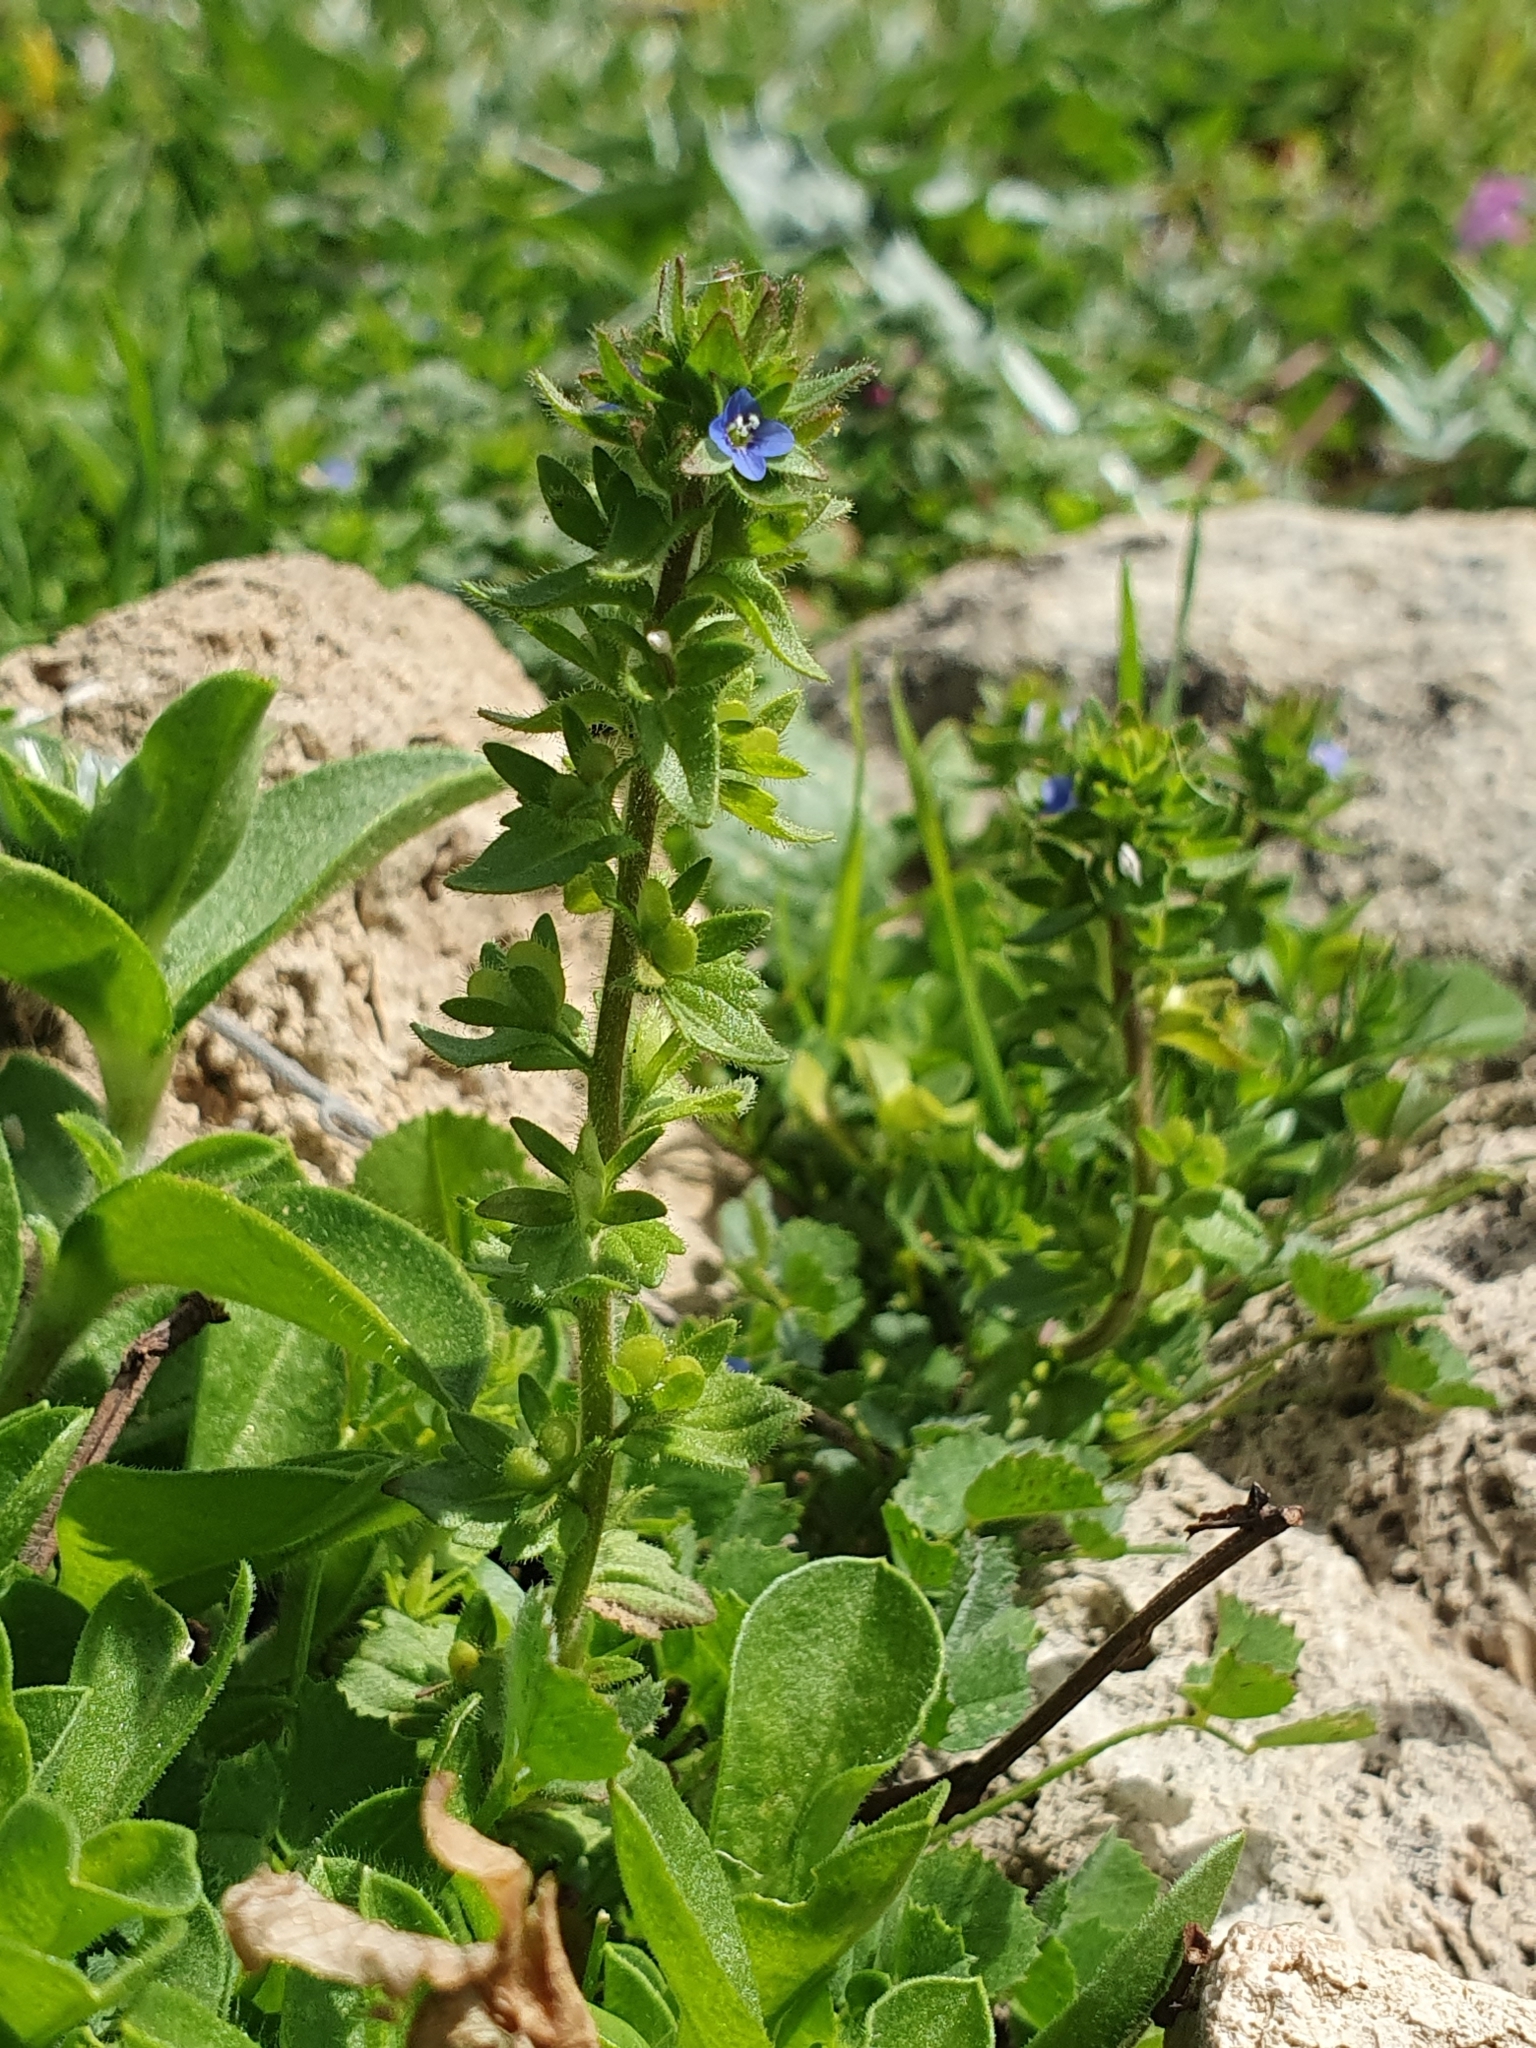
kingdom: Plantae
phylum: Tracheophyta
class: Magnoliopsida
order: Lamiales
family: Plantaginaceae
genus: Veronica
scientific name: Veronica arvensis
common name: Corn speedwell
